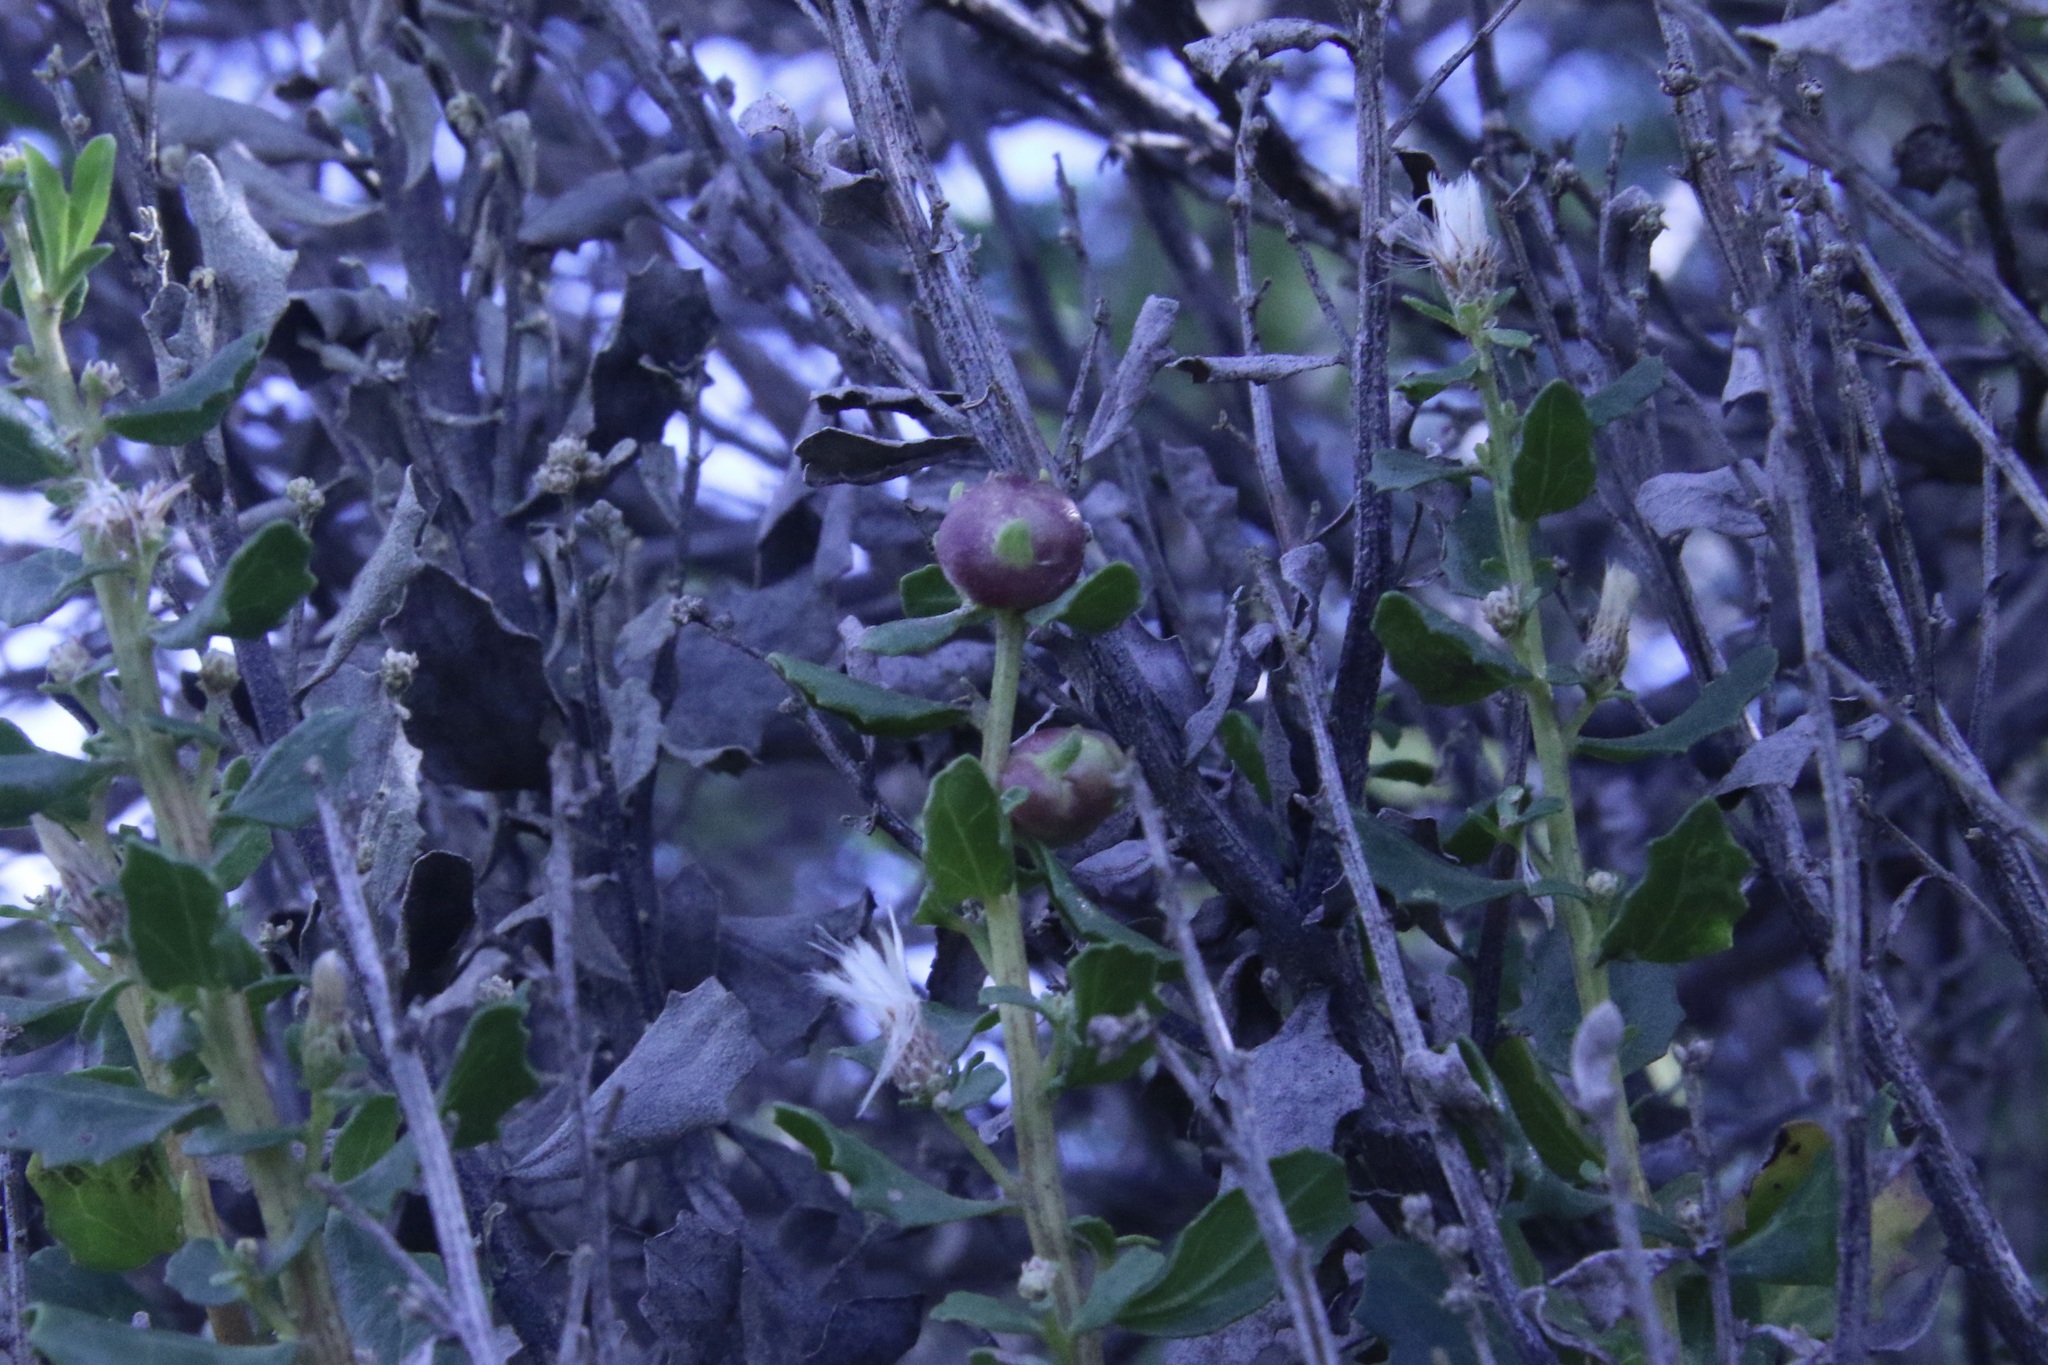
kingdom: Animalia
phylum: Arthropoda
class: Insecta
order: Diptera
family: Cecidomyiidae
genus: Rhopalomyia
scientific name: Rhopalomyia californica
